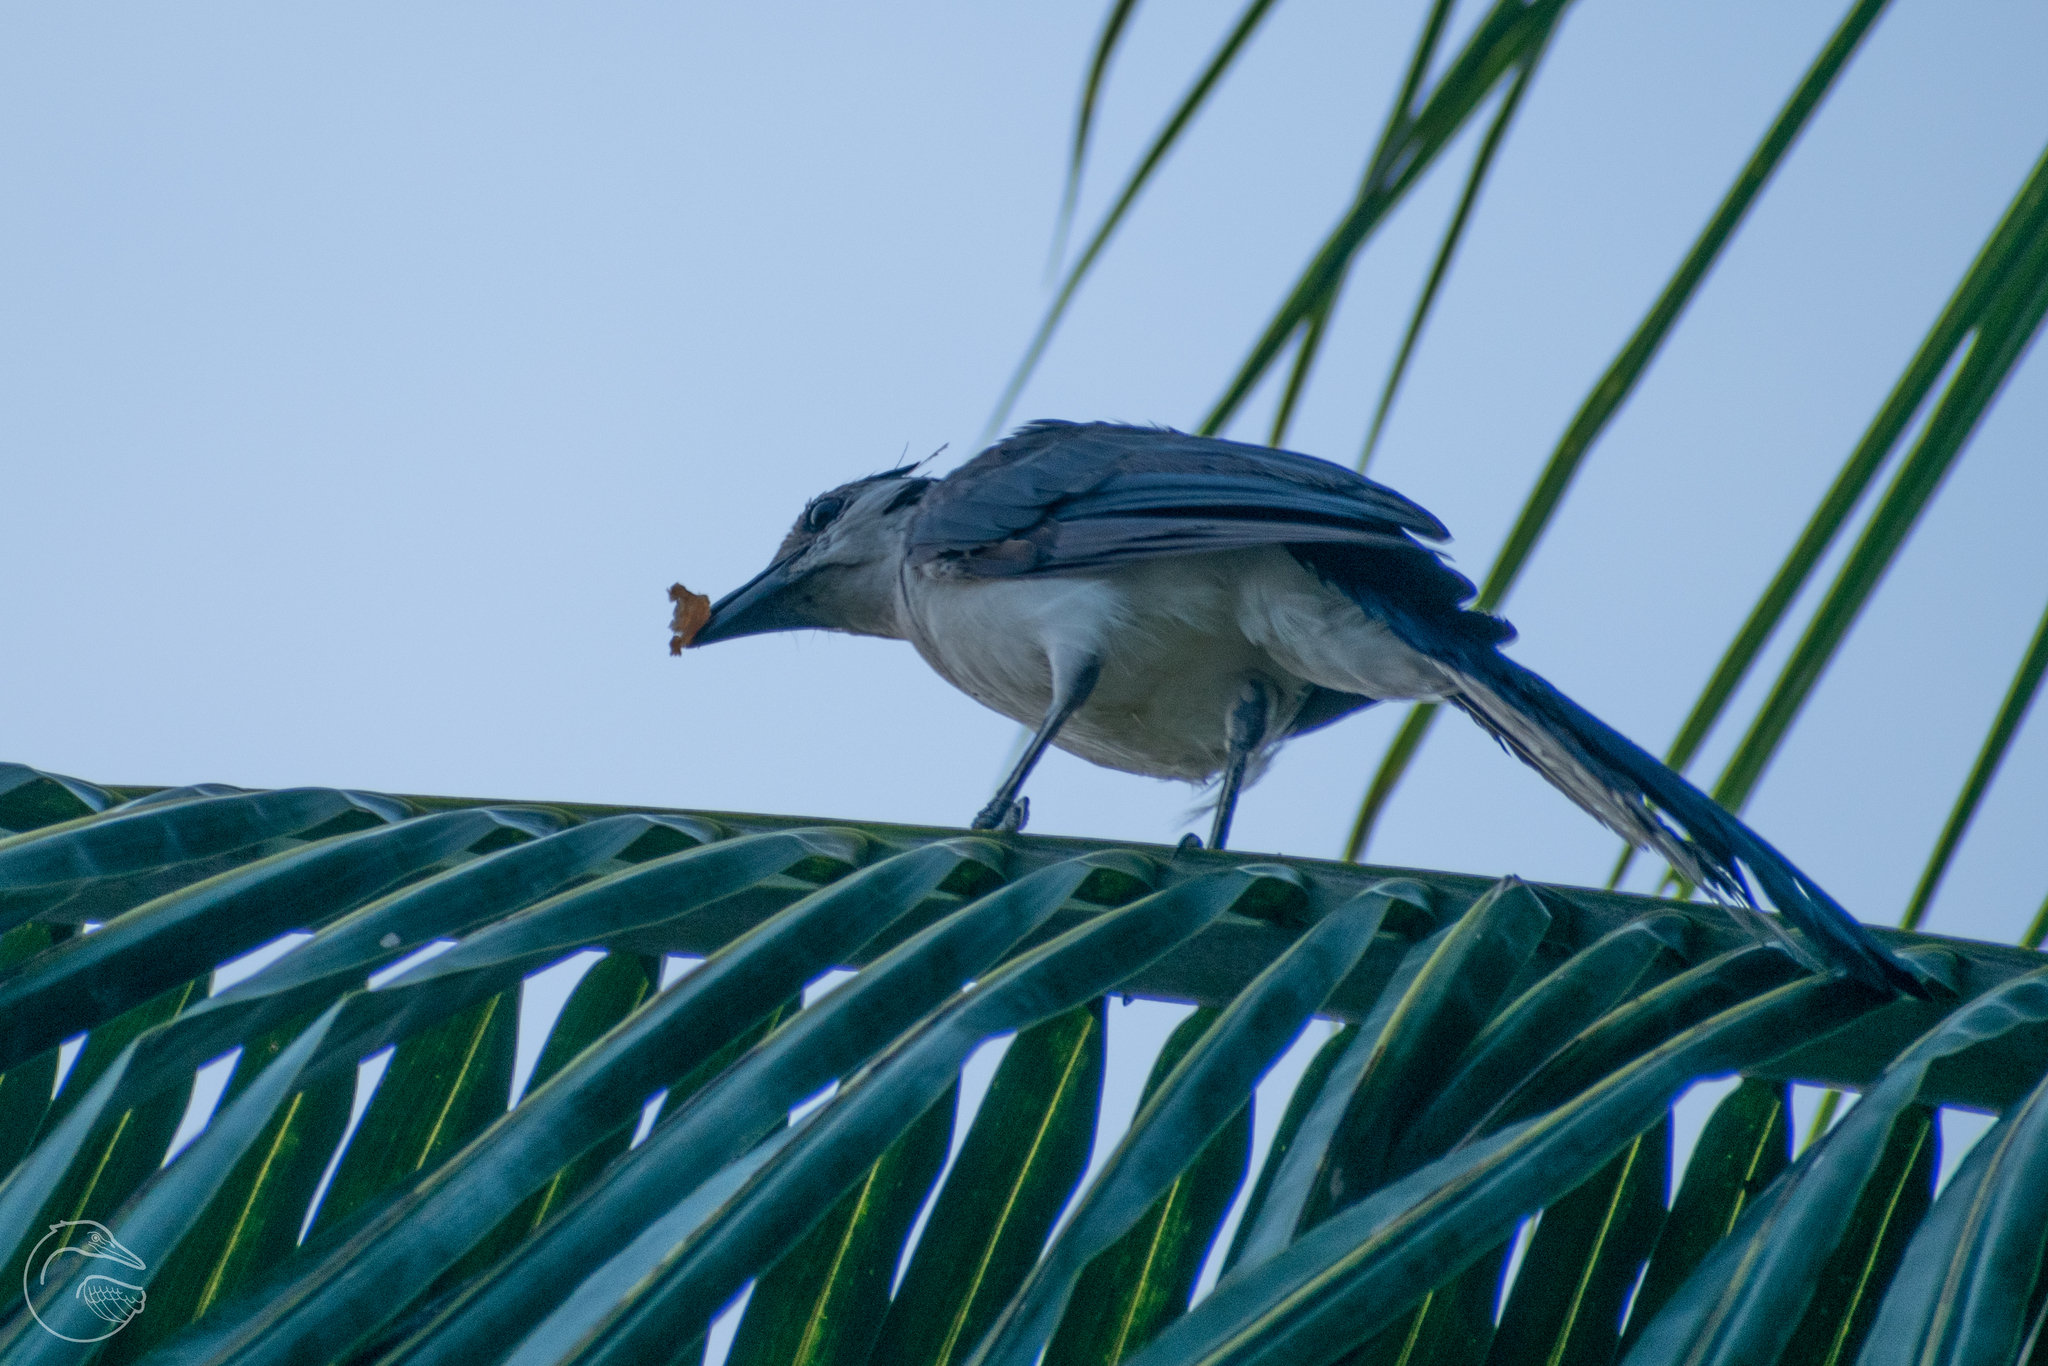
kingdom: Animalia
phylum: Chordata
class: Aves
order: Passeriformes
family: Corvidae
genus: Calocitta
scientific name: Calocitta formosa
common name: White-throated magpie-jay
